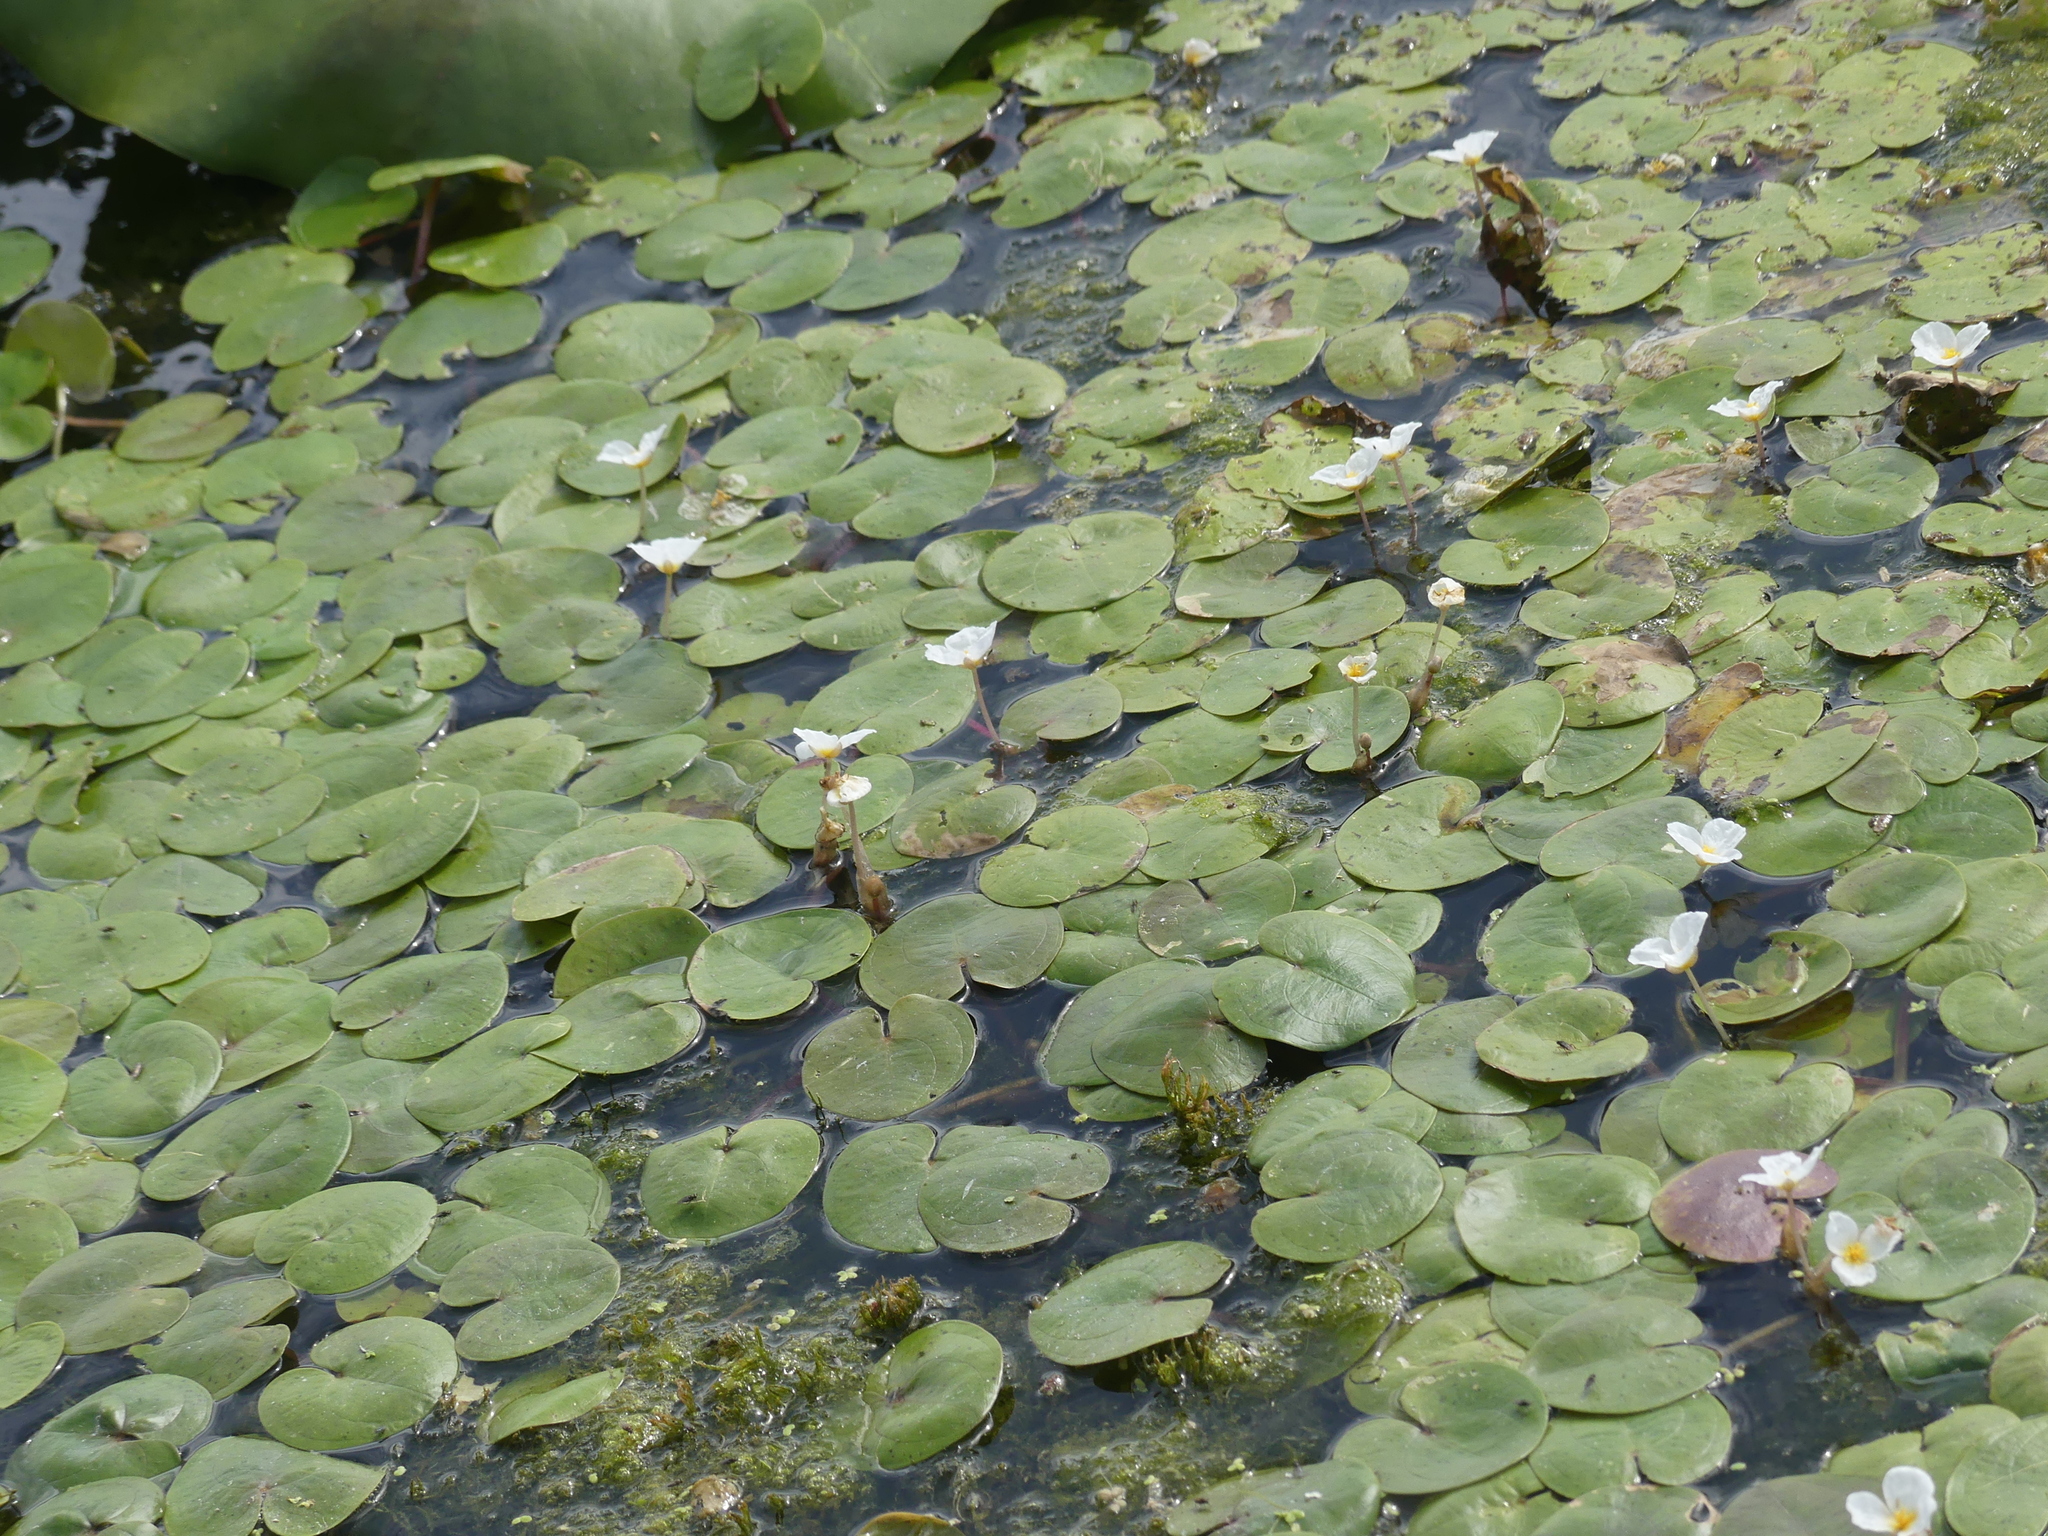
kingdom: Plantae
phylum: Tracheophyta
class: Liliopsida
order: Alismatales
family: Hydrocharitaceae
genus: Hydrocharis
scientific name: Hydrocharis morsus-ranae
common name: Frogbit
